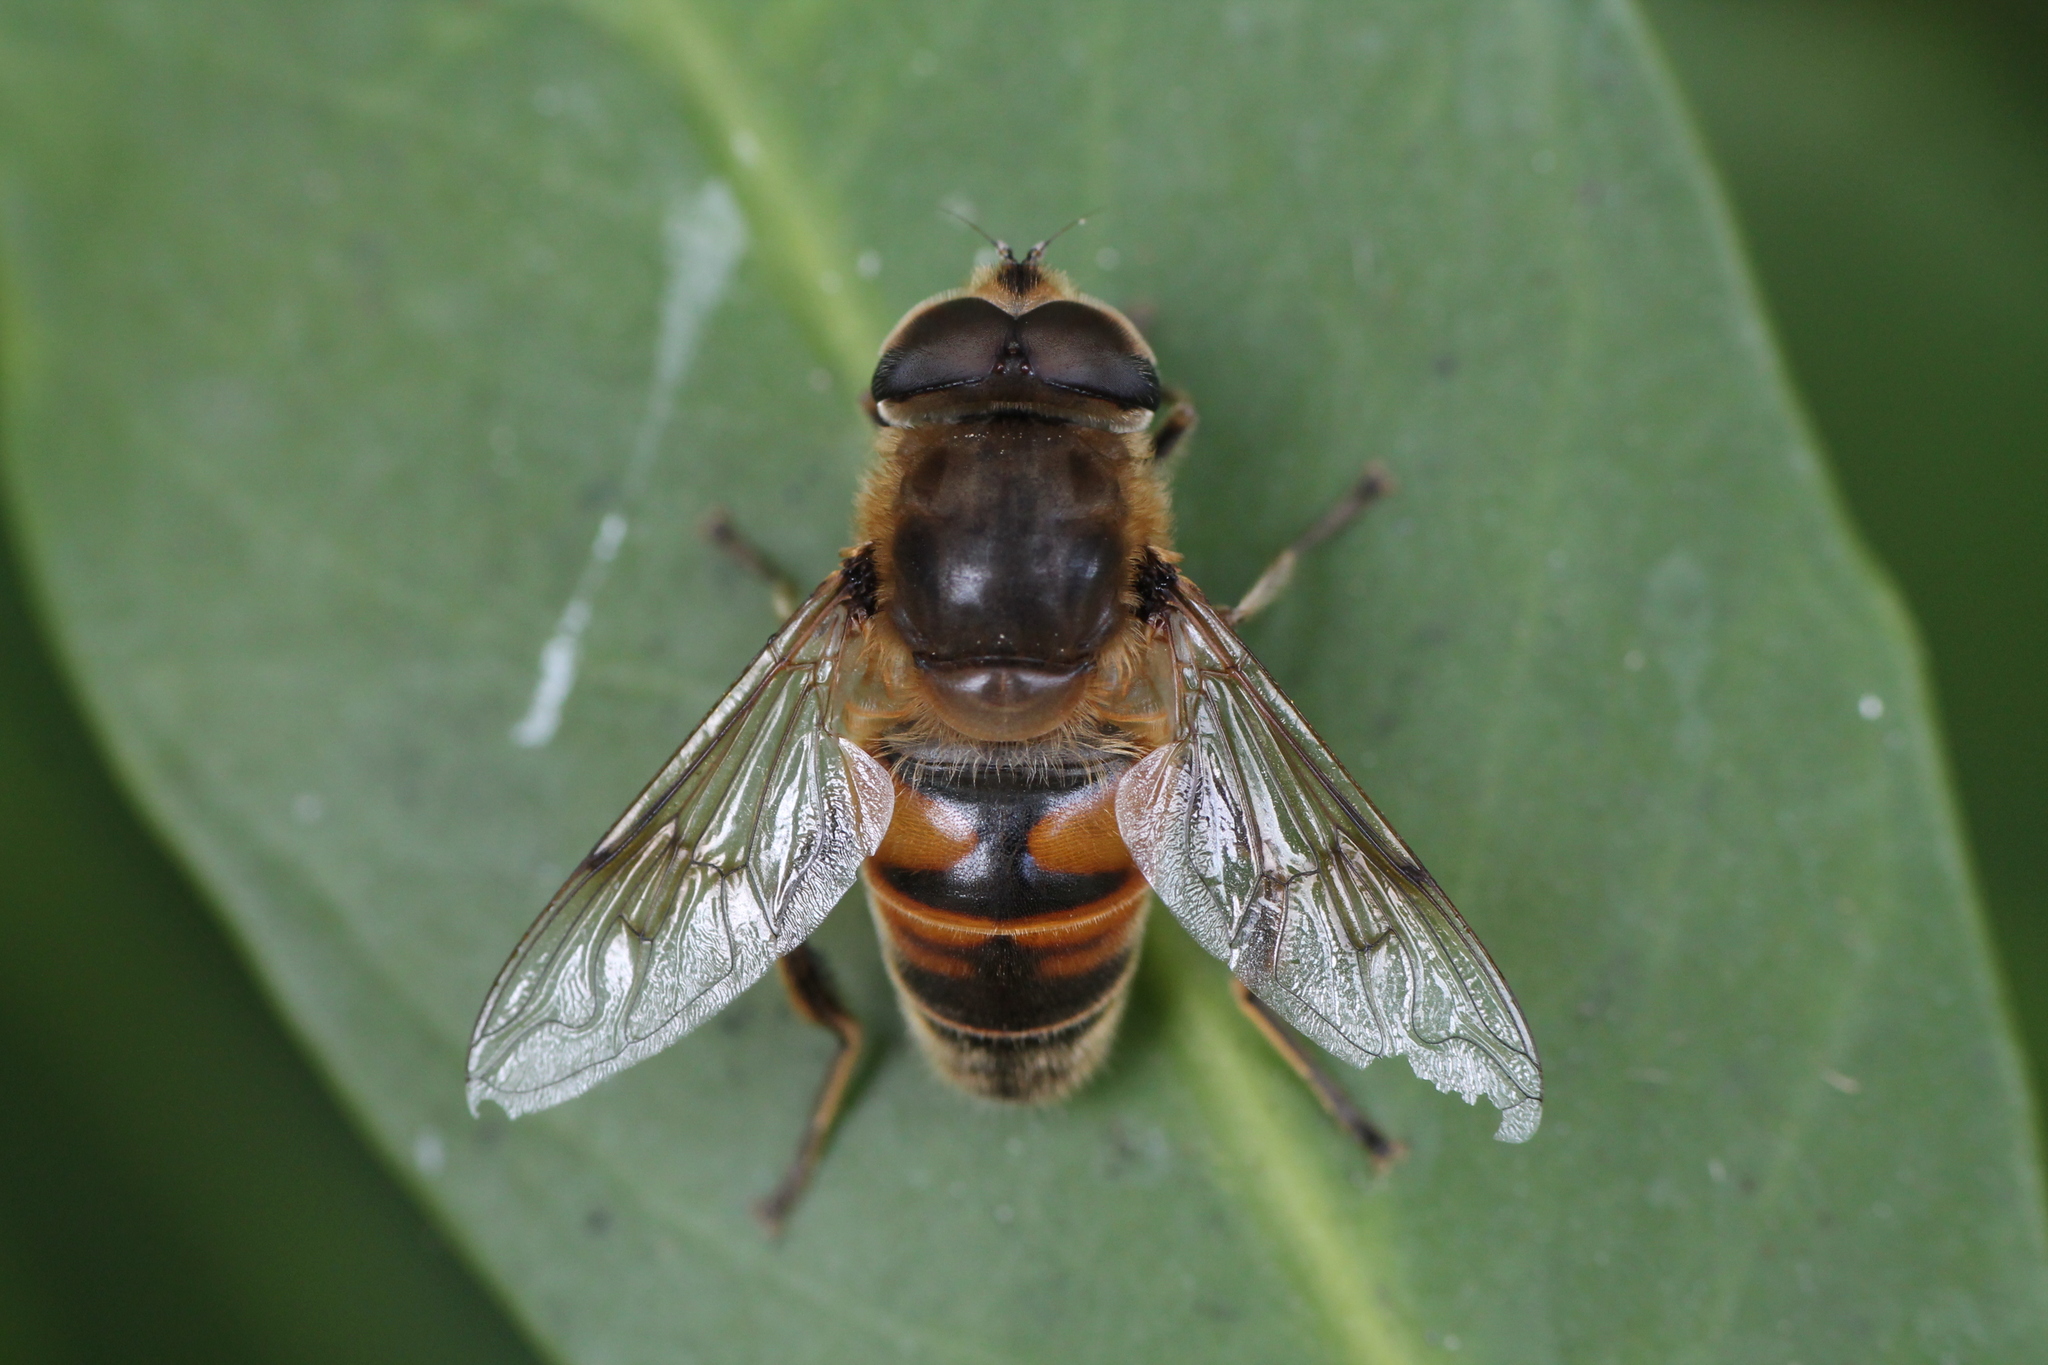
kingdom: Animalia
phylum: Arthropoda
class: Insecta
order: Diptera
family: Syrphidae
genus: Eristalis
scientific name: Eristalis tenax
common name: Drone fly
